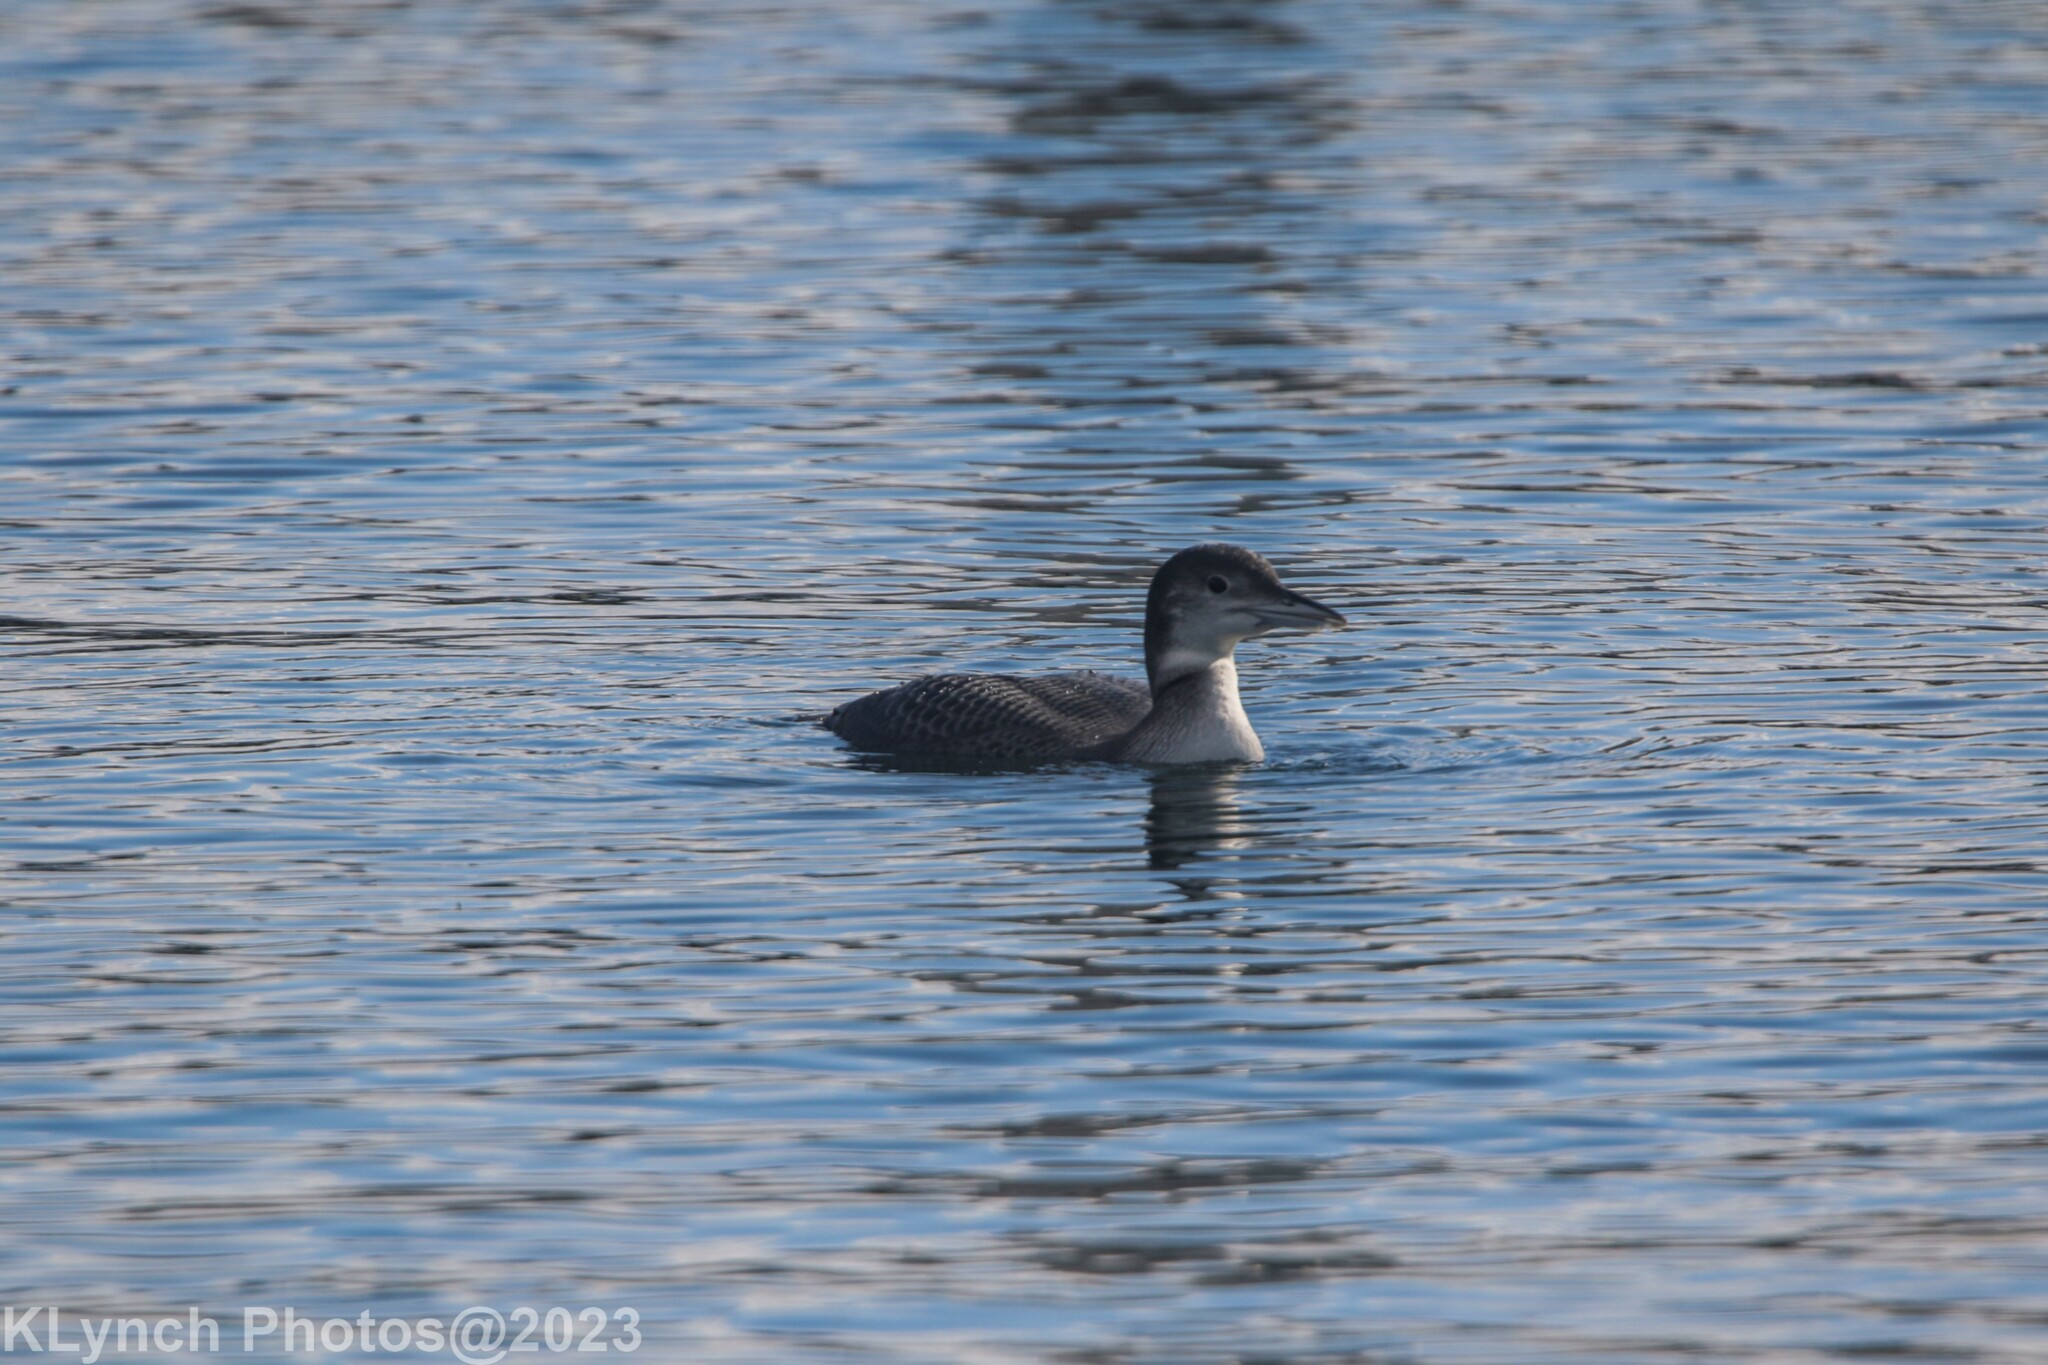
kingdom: Animalia
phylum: Chordata
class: Aves
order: Gaviiformes
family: Gaviidae
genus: Gavia
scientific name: Gavia immer
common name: Common loon
